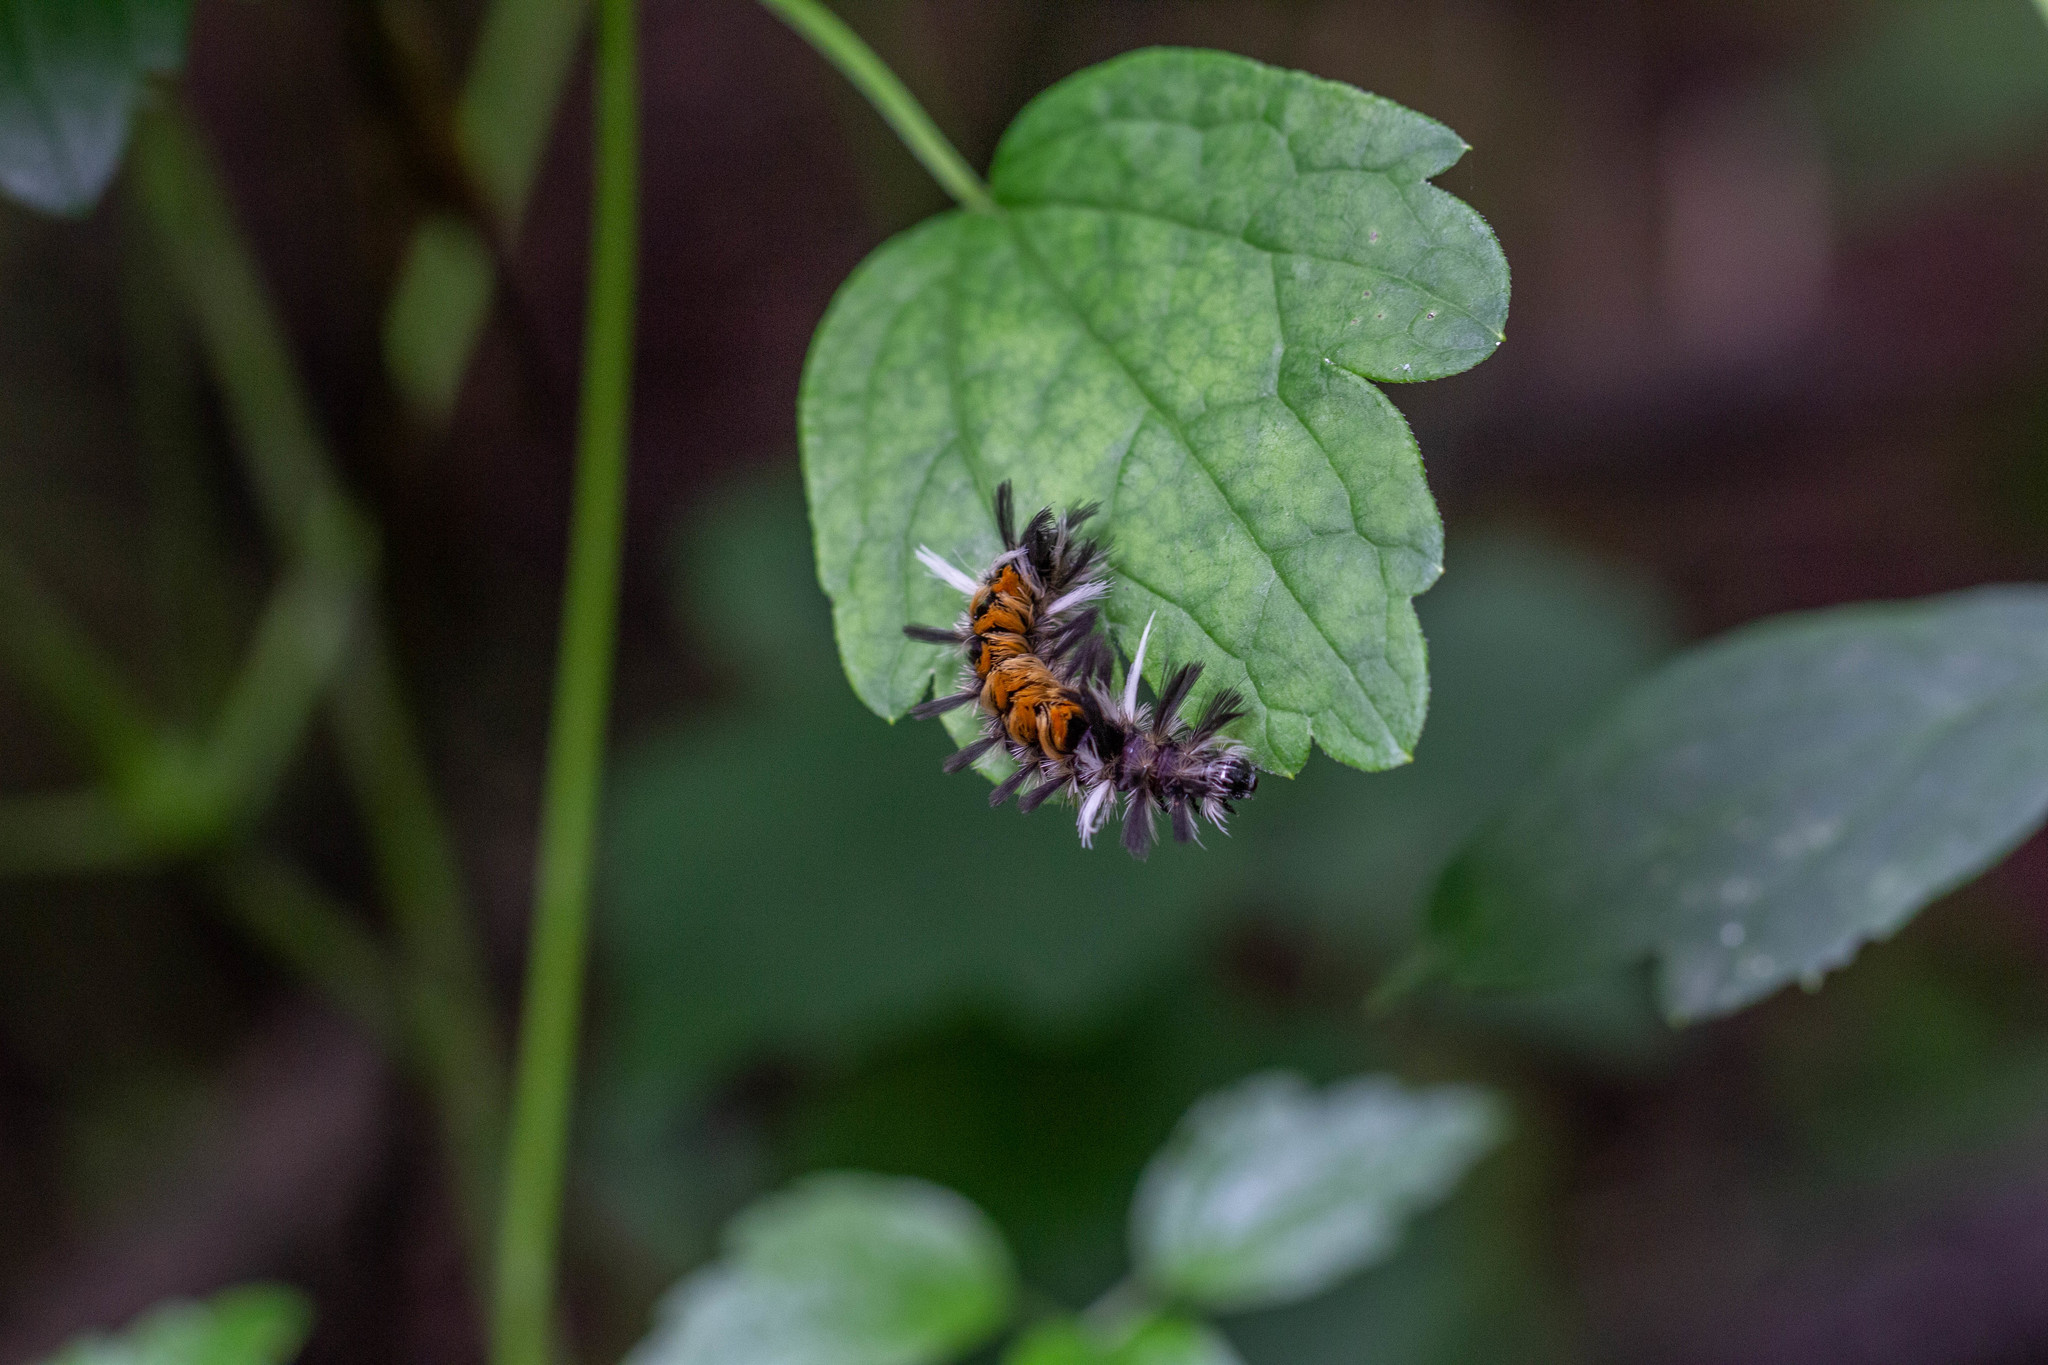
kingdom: Animalia
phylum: Arthropoda
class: Insecta
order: Lepidoptera
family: Erebidae
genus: Euchaetes
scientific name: Euchaetes egle
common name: Milkweed tussock moth
